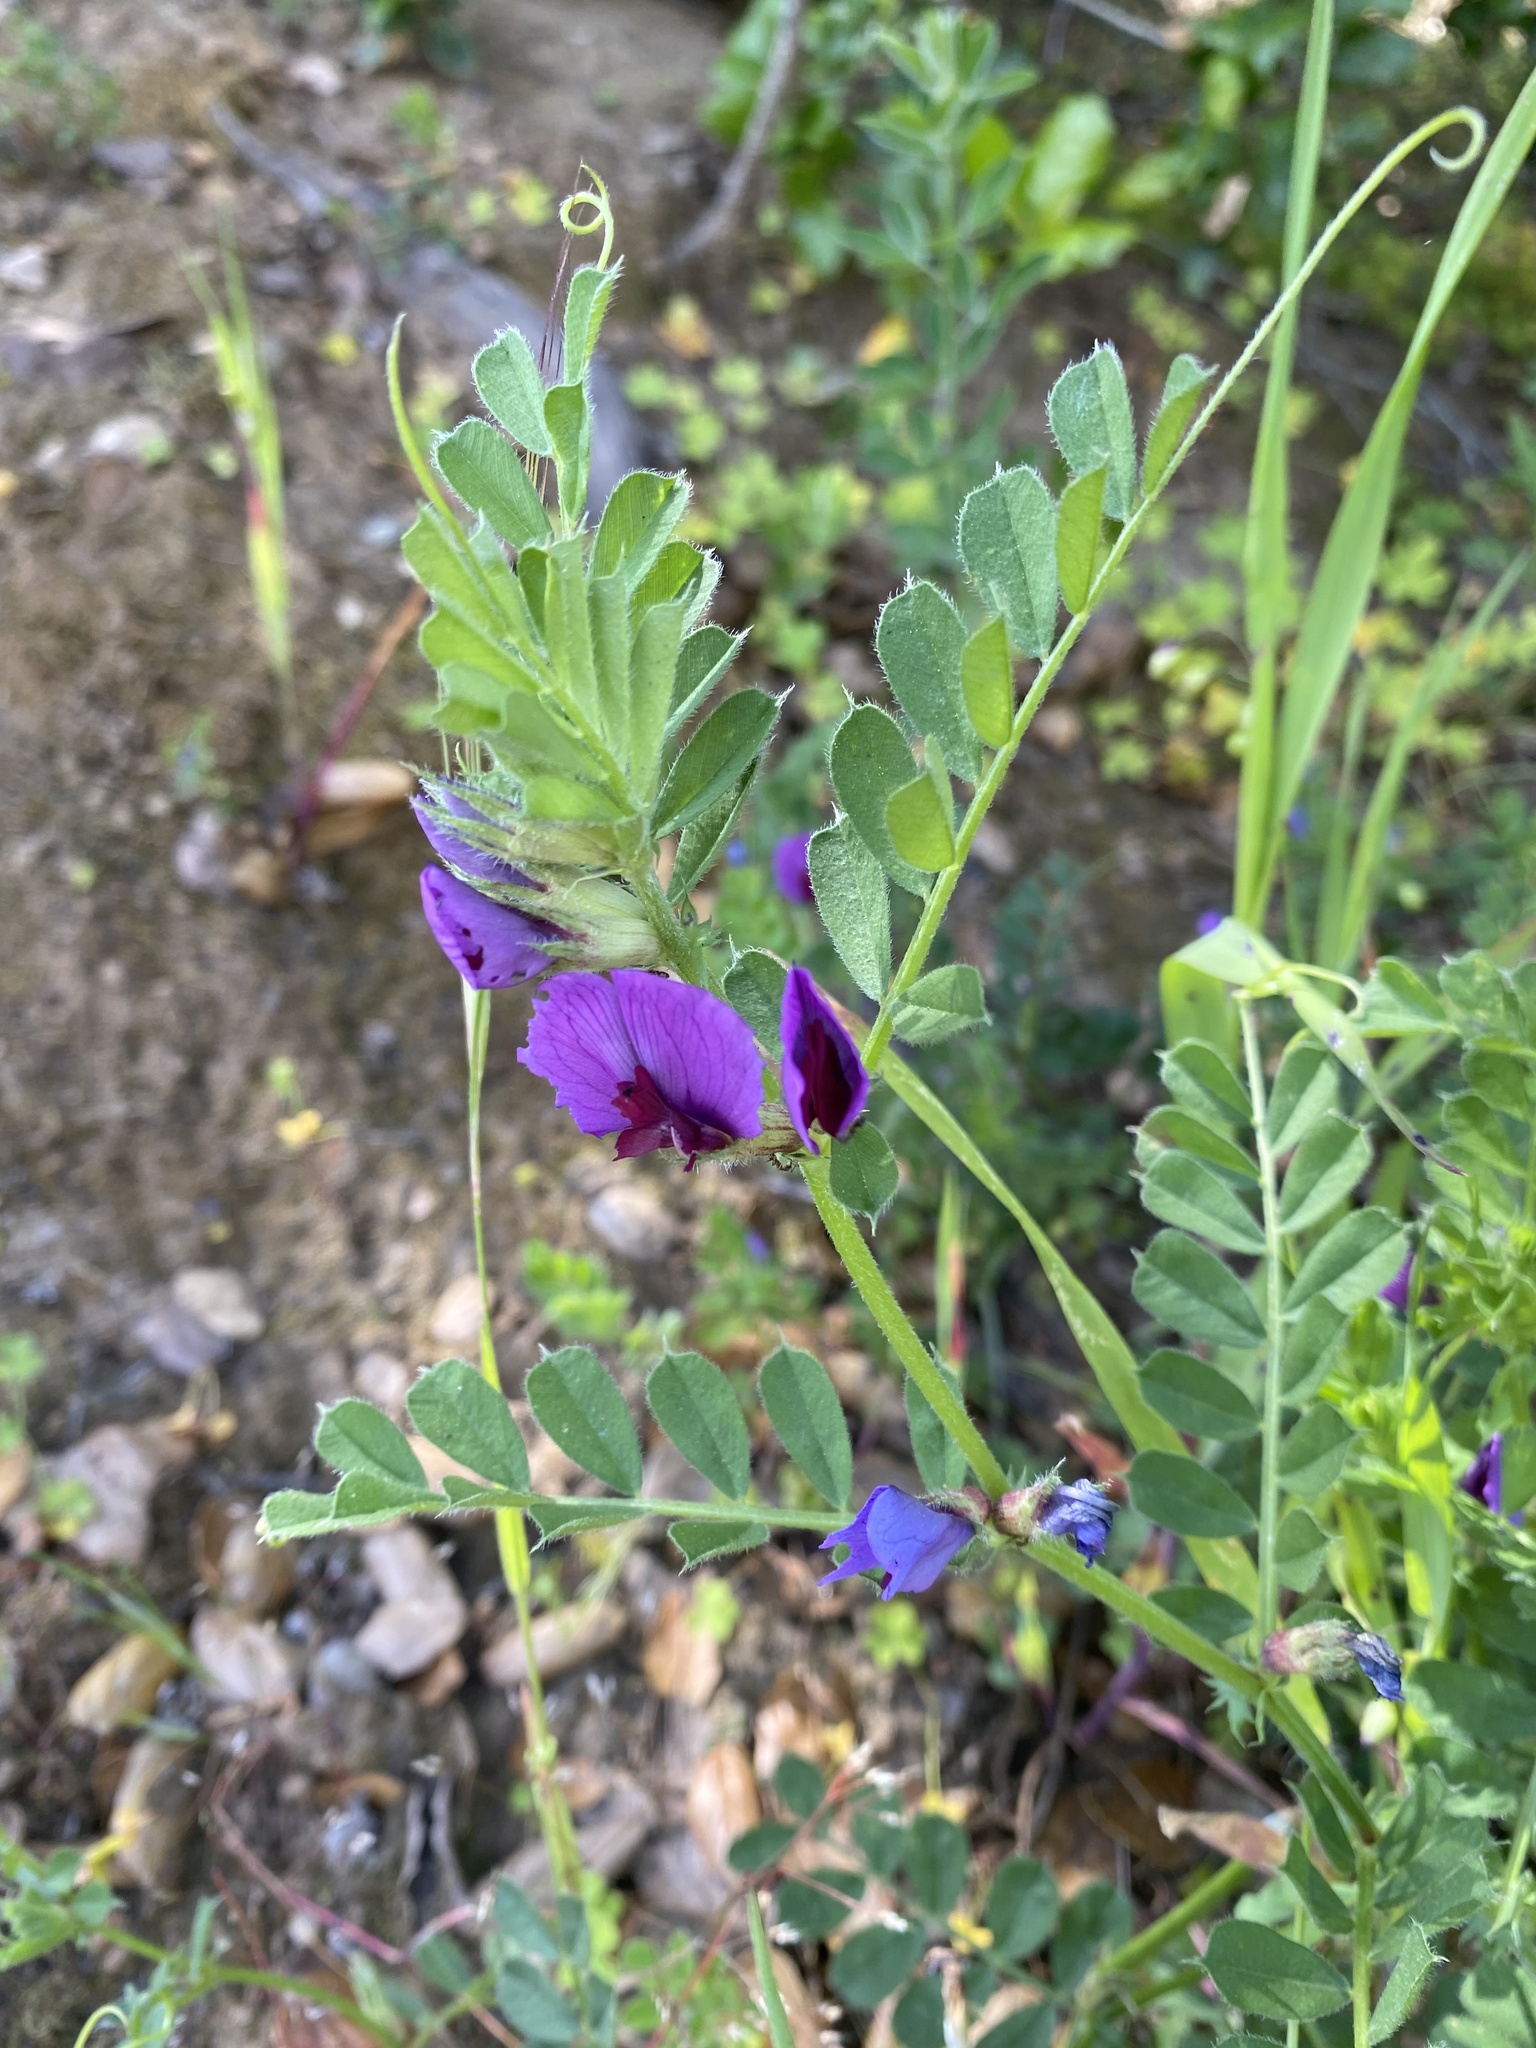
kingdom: Plantae
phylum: Tracheophyta
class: Magnoliopsida
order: Fabales
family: Fabaceae
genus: Vicia
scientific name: Vicia sativa
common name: Garden vetch
